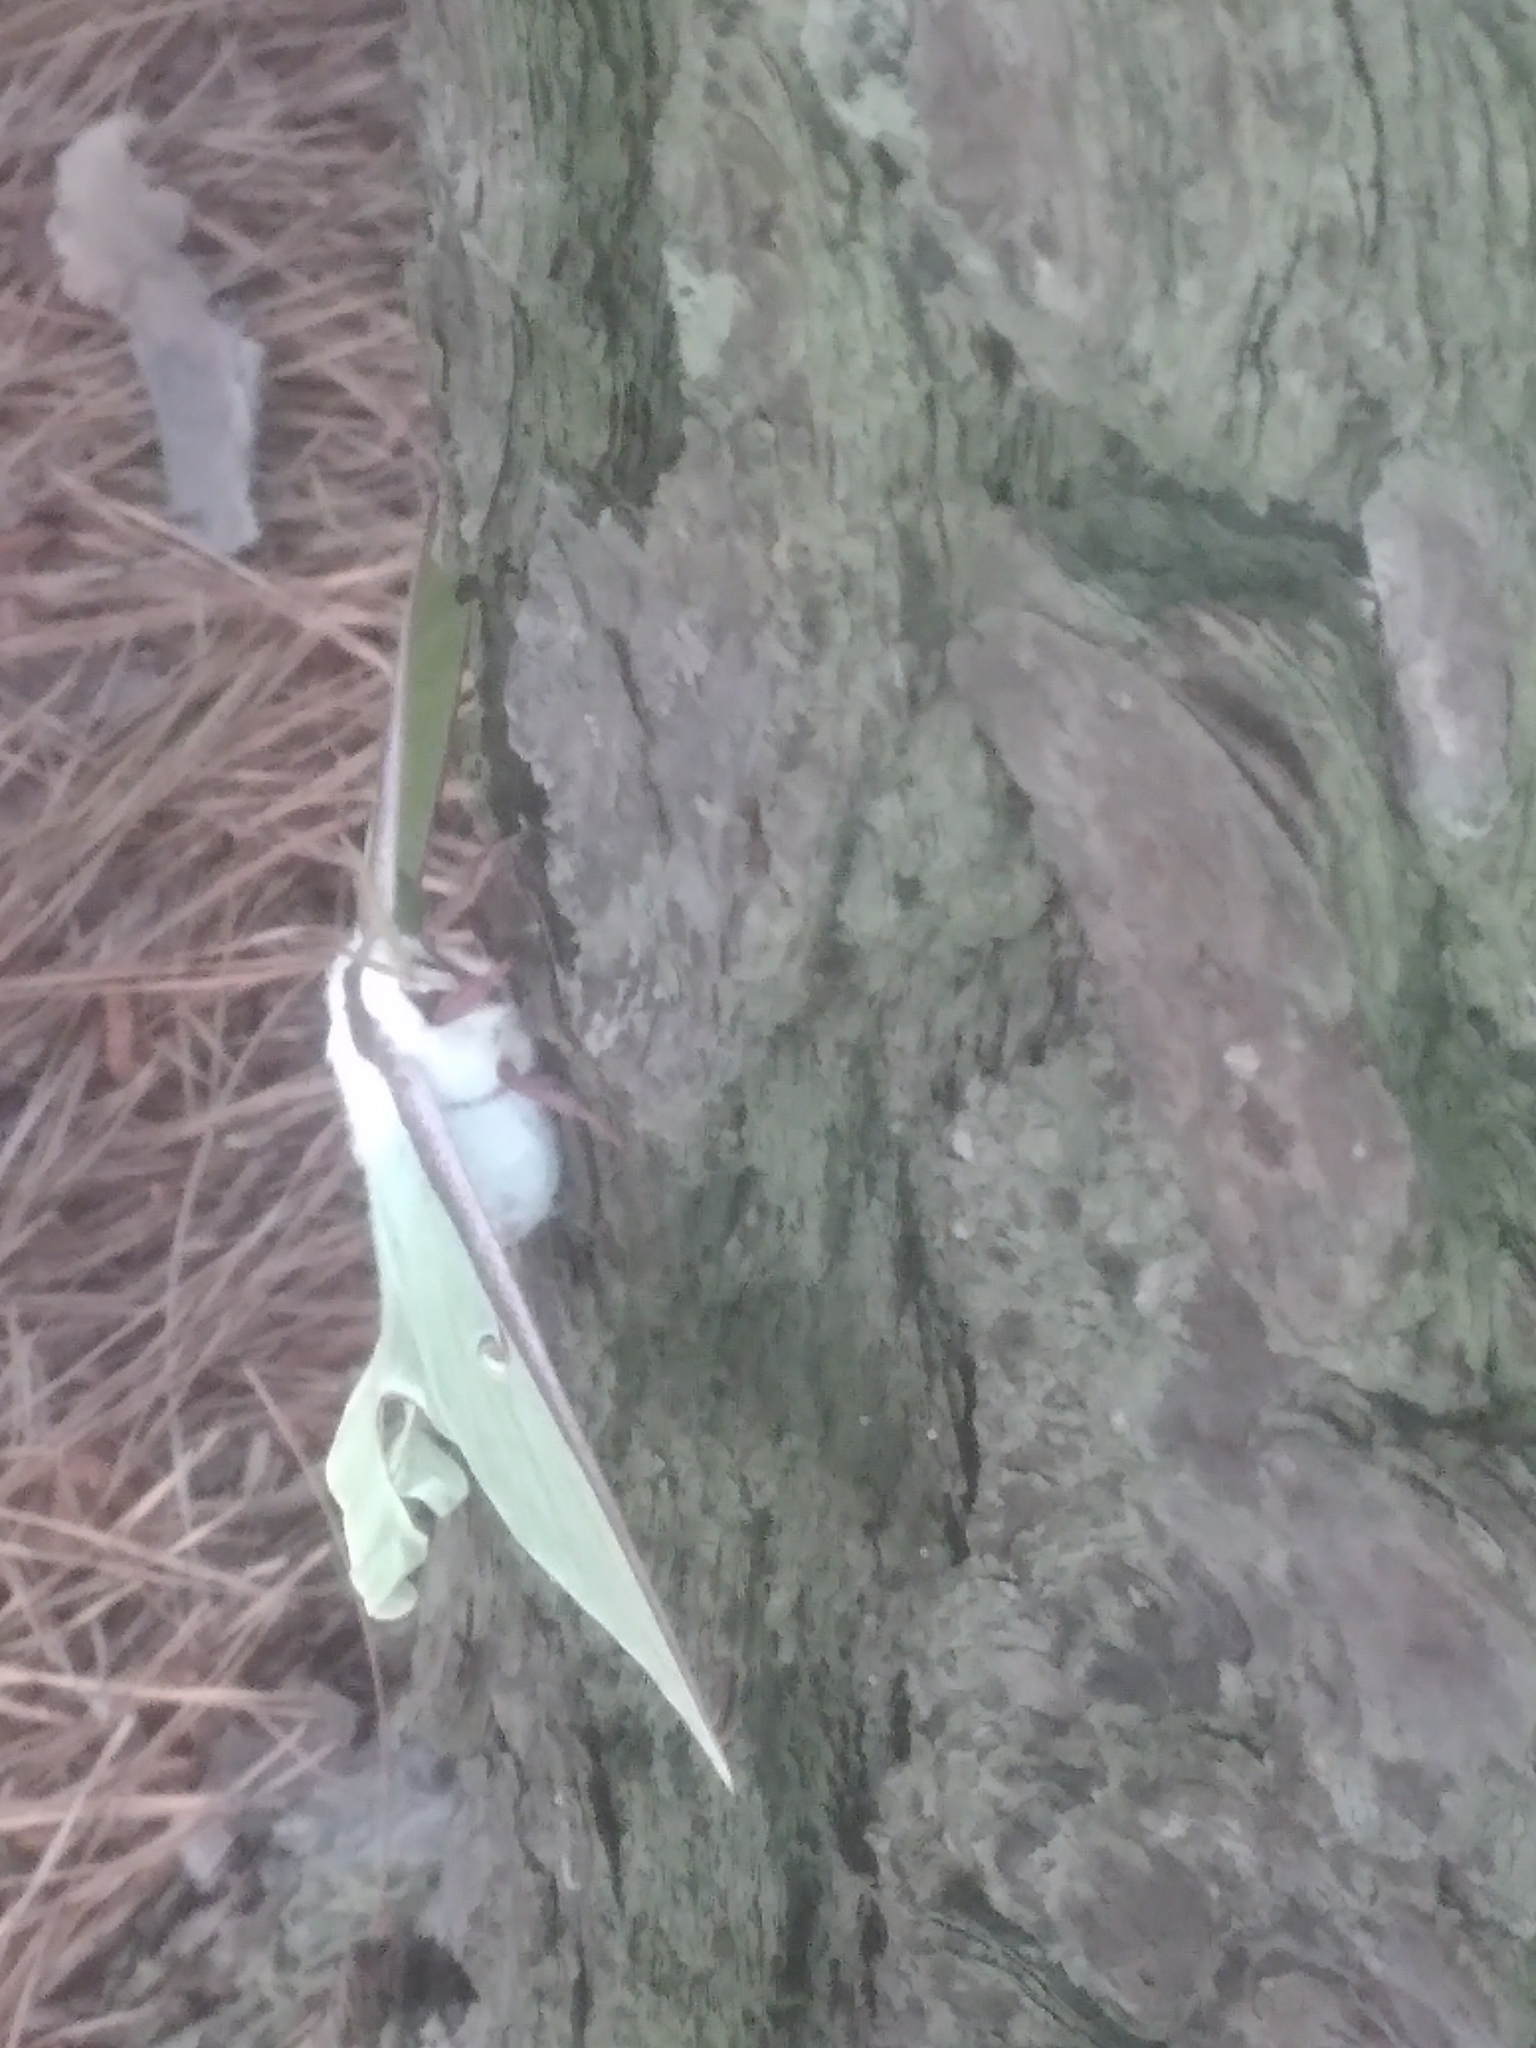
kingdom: Animalia
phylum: Arthropoda
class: Insecta
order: Lepidoptera
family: Saturniidae
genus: Actias
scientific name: Actias luna
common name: Luna moth
